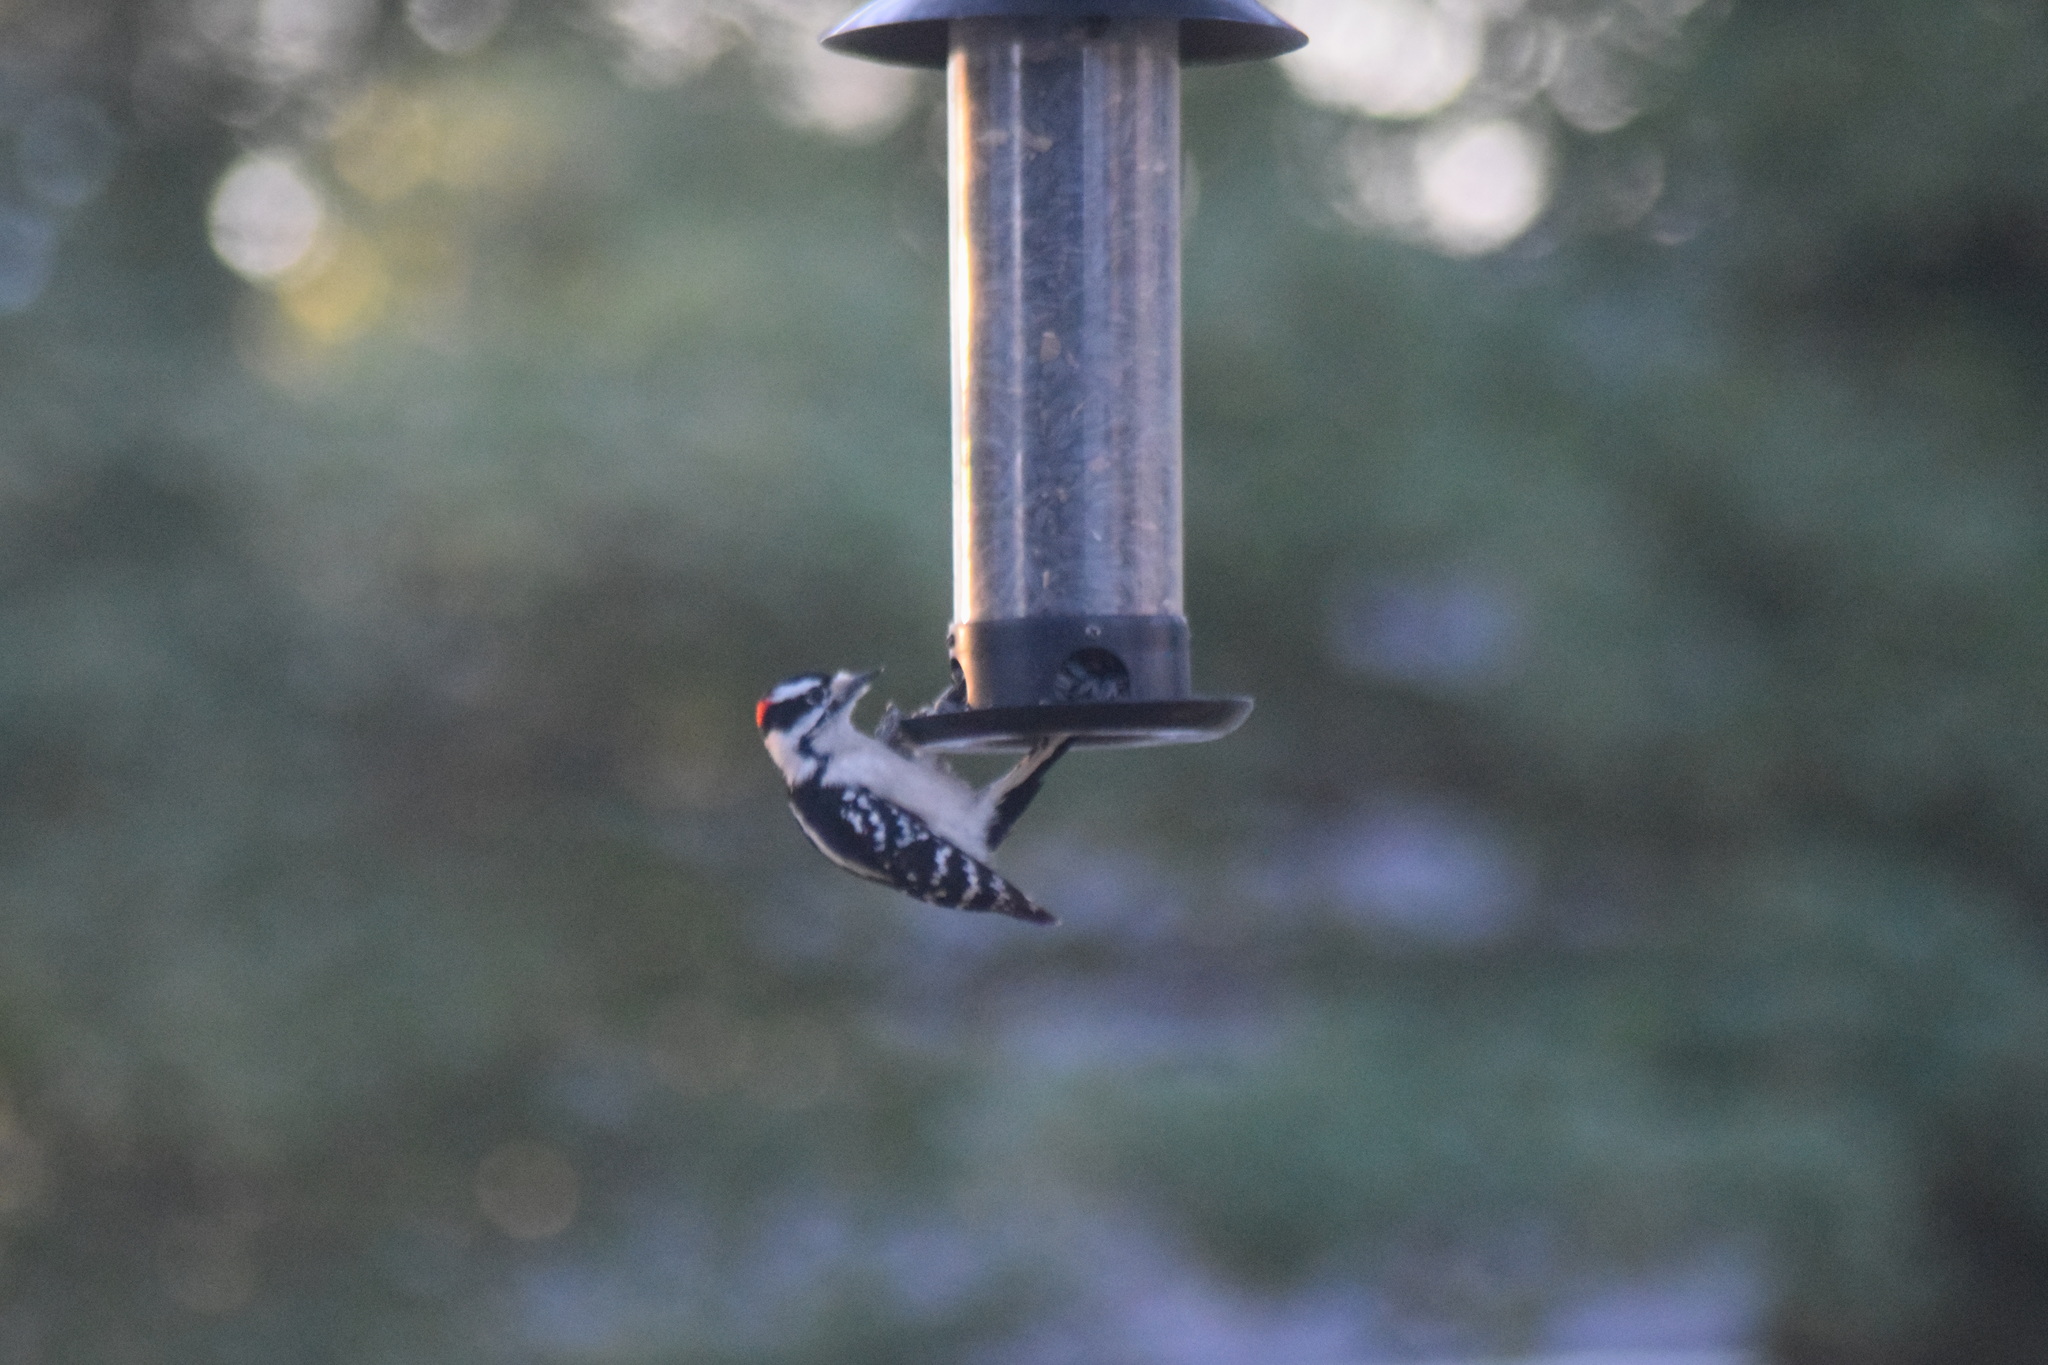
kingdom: Animalia
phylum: Chordata
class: Aves
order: Piciformes
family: Picidae
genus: Dryobates
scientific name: Dryobates pubescens
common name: Downy woodpecker
